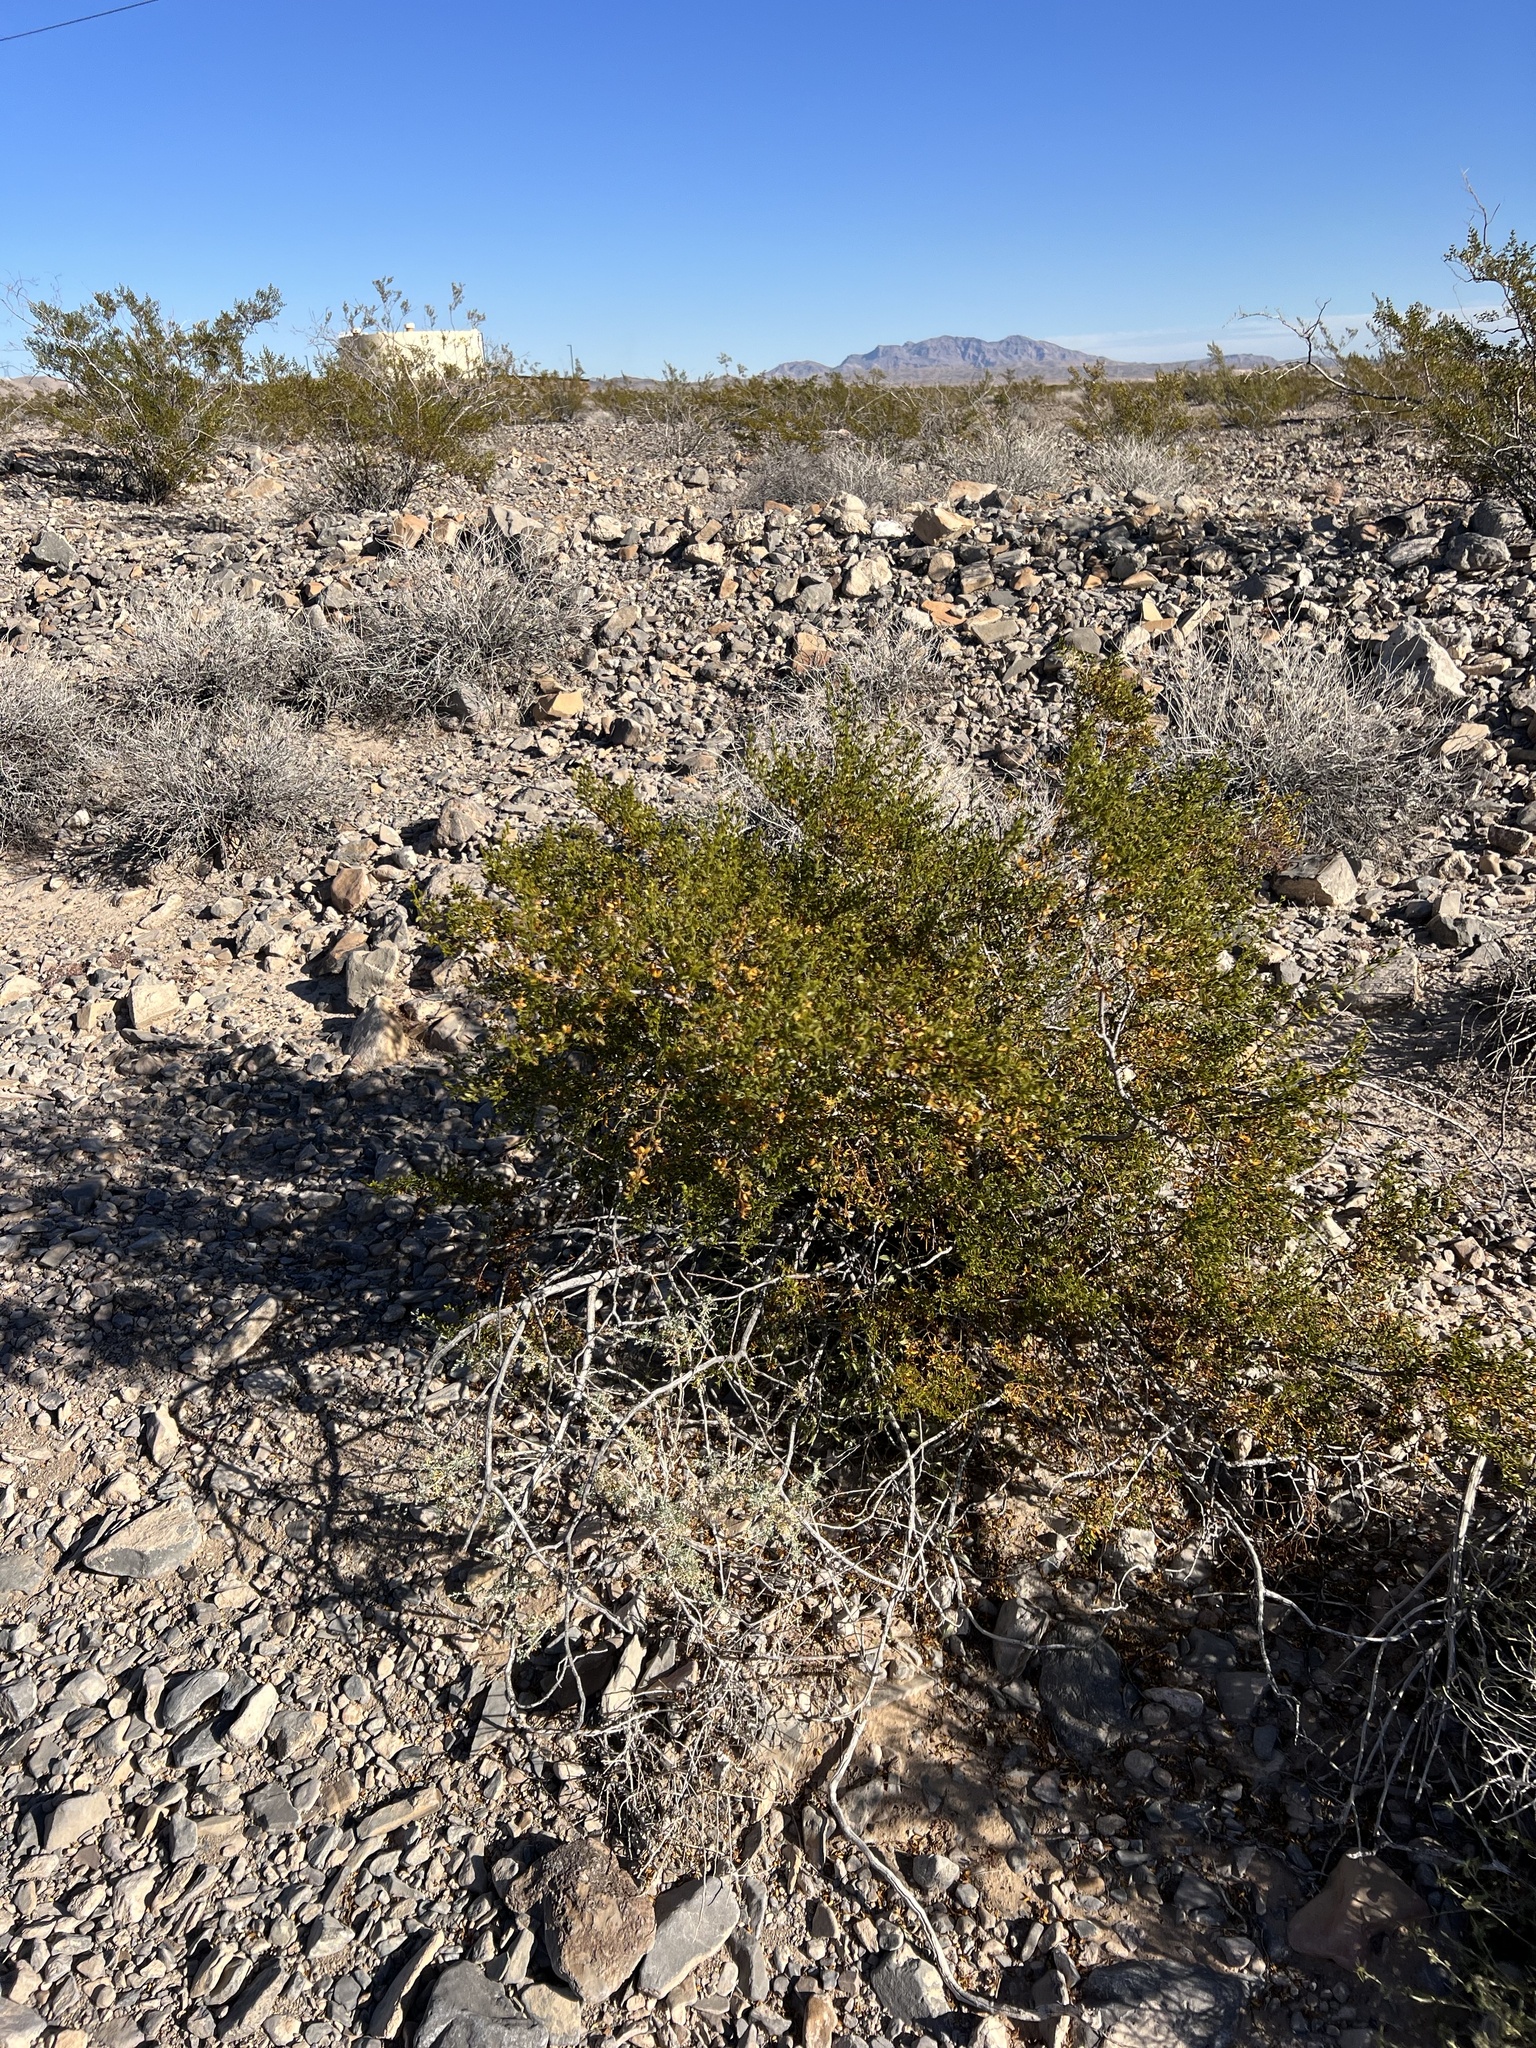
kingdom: Plantae
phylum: Tracheophyta
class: Magnoliopsida
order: Zygophyllales
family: Zygophyllaceae
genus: Larrea
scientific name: Larrea tridentata
